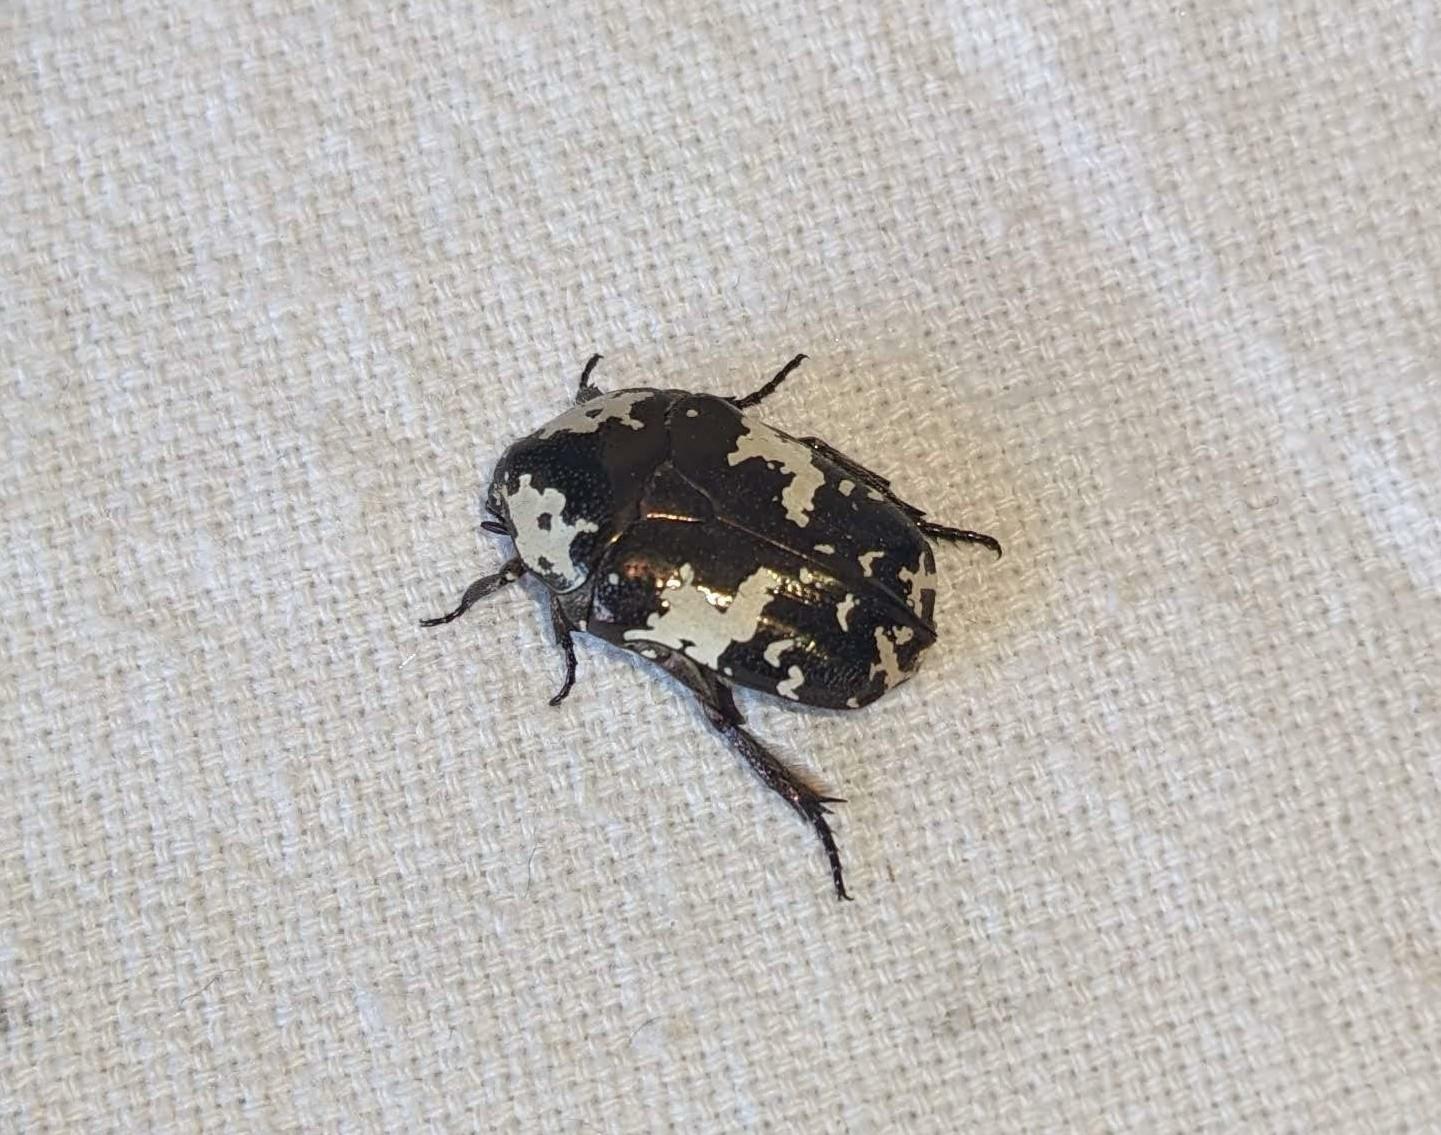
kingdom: Animalia
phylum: Arthropoda
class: Insecta
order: Coleoptera
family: Scarabaeidae
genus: Protaetia
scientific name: Protaetia aurichalcea
